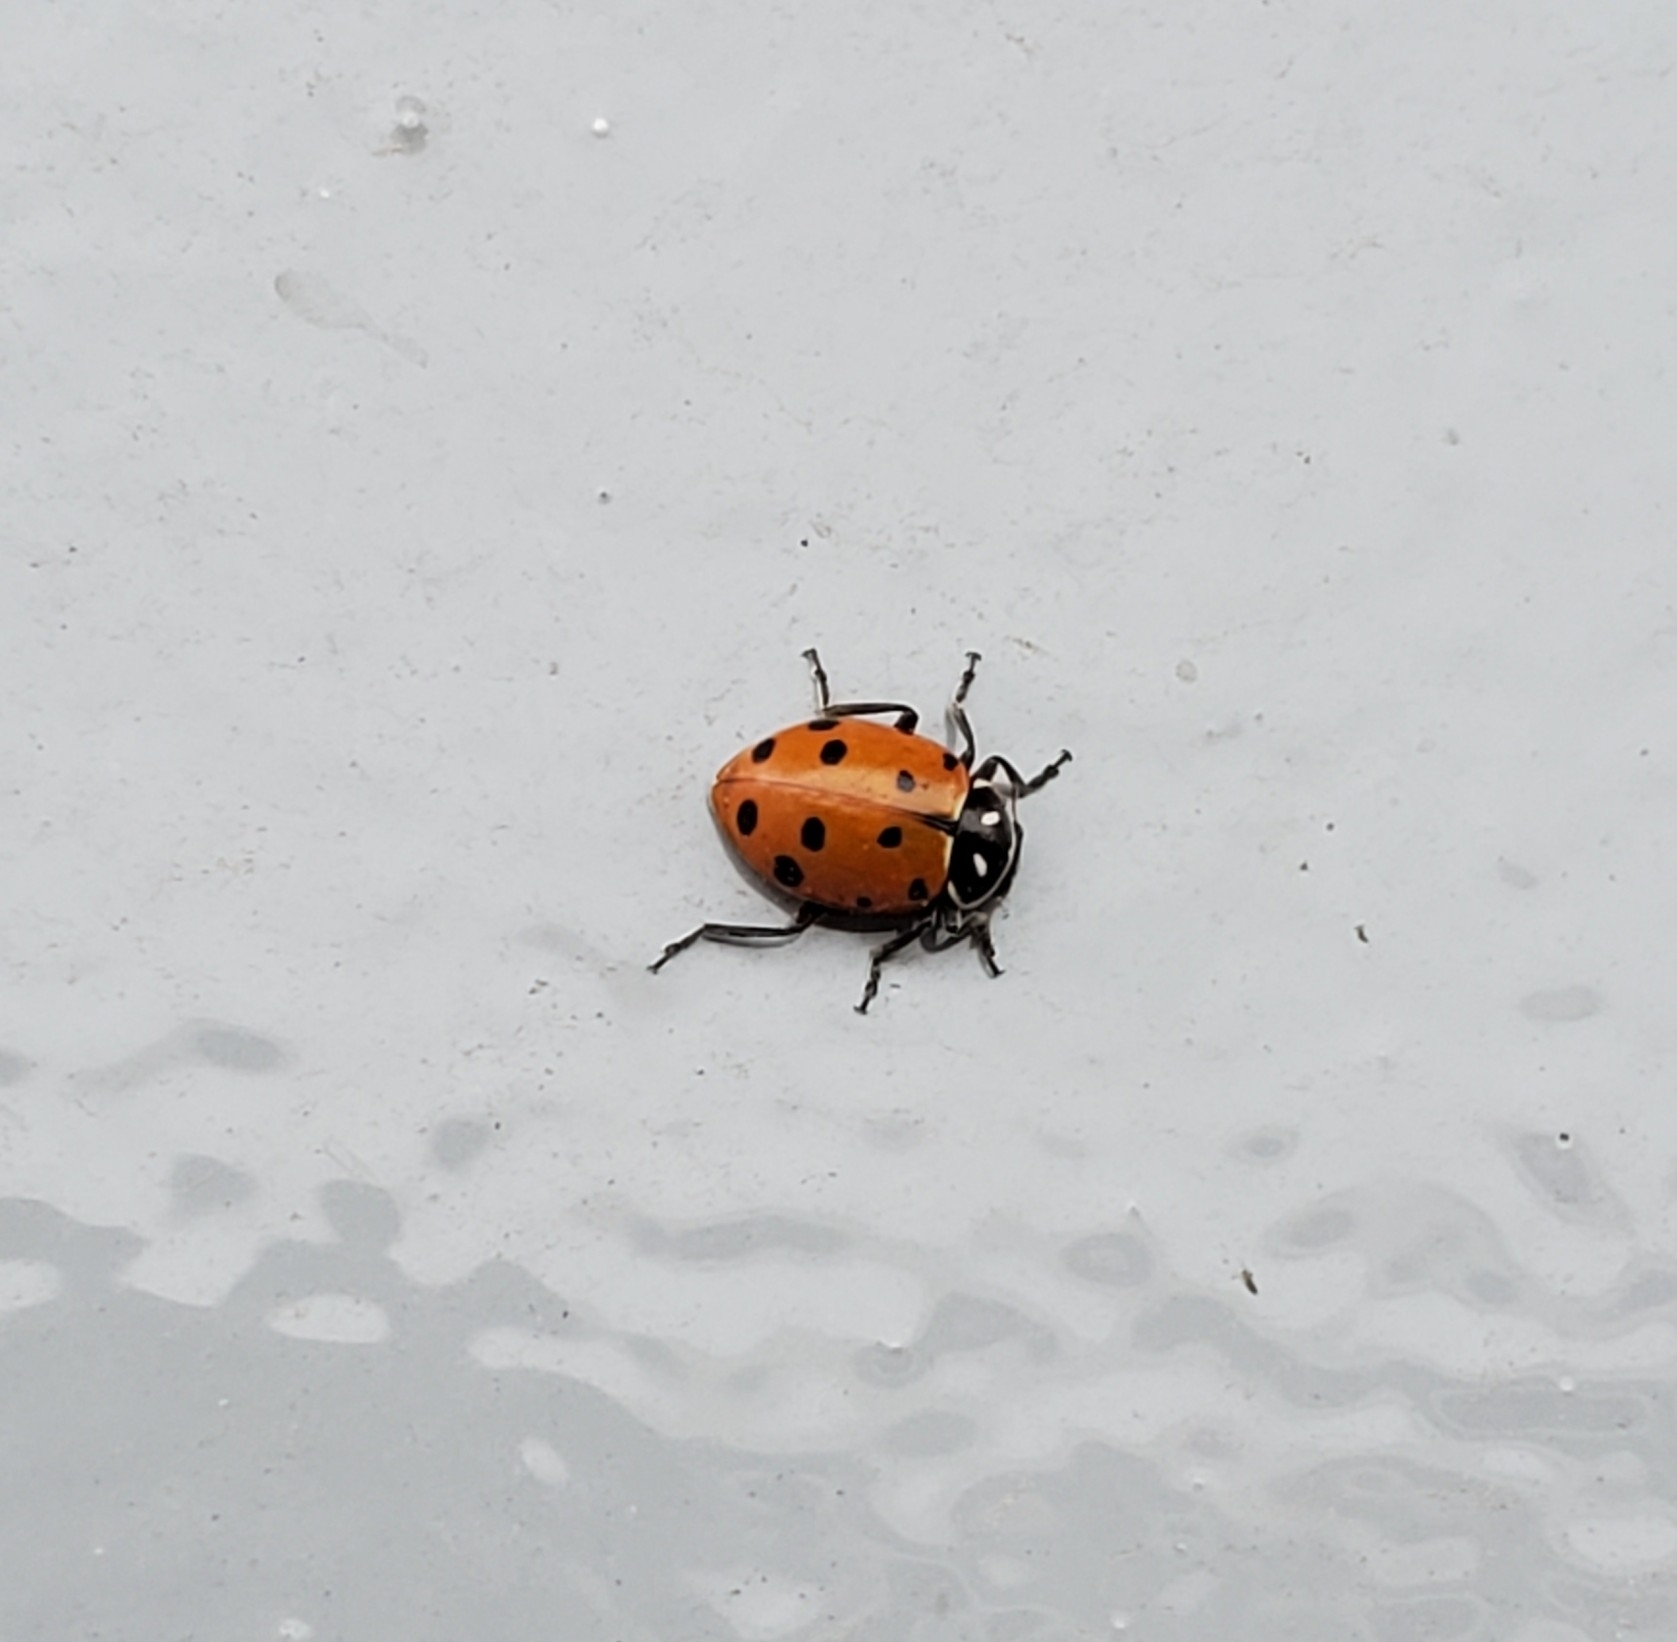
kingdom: Animalia
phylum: Arthropoda
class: Insecta
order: Coleoptera
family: Coccinellidae
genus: Hippodamia
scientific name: Hippodamia convergens
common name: Convergent lady beetle
